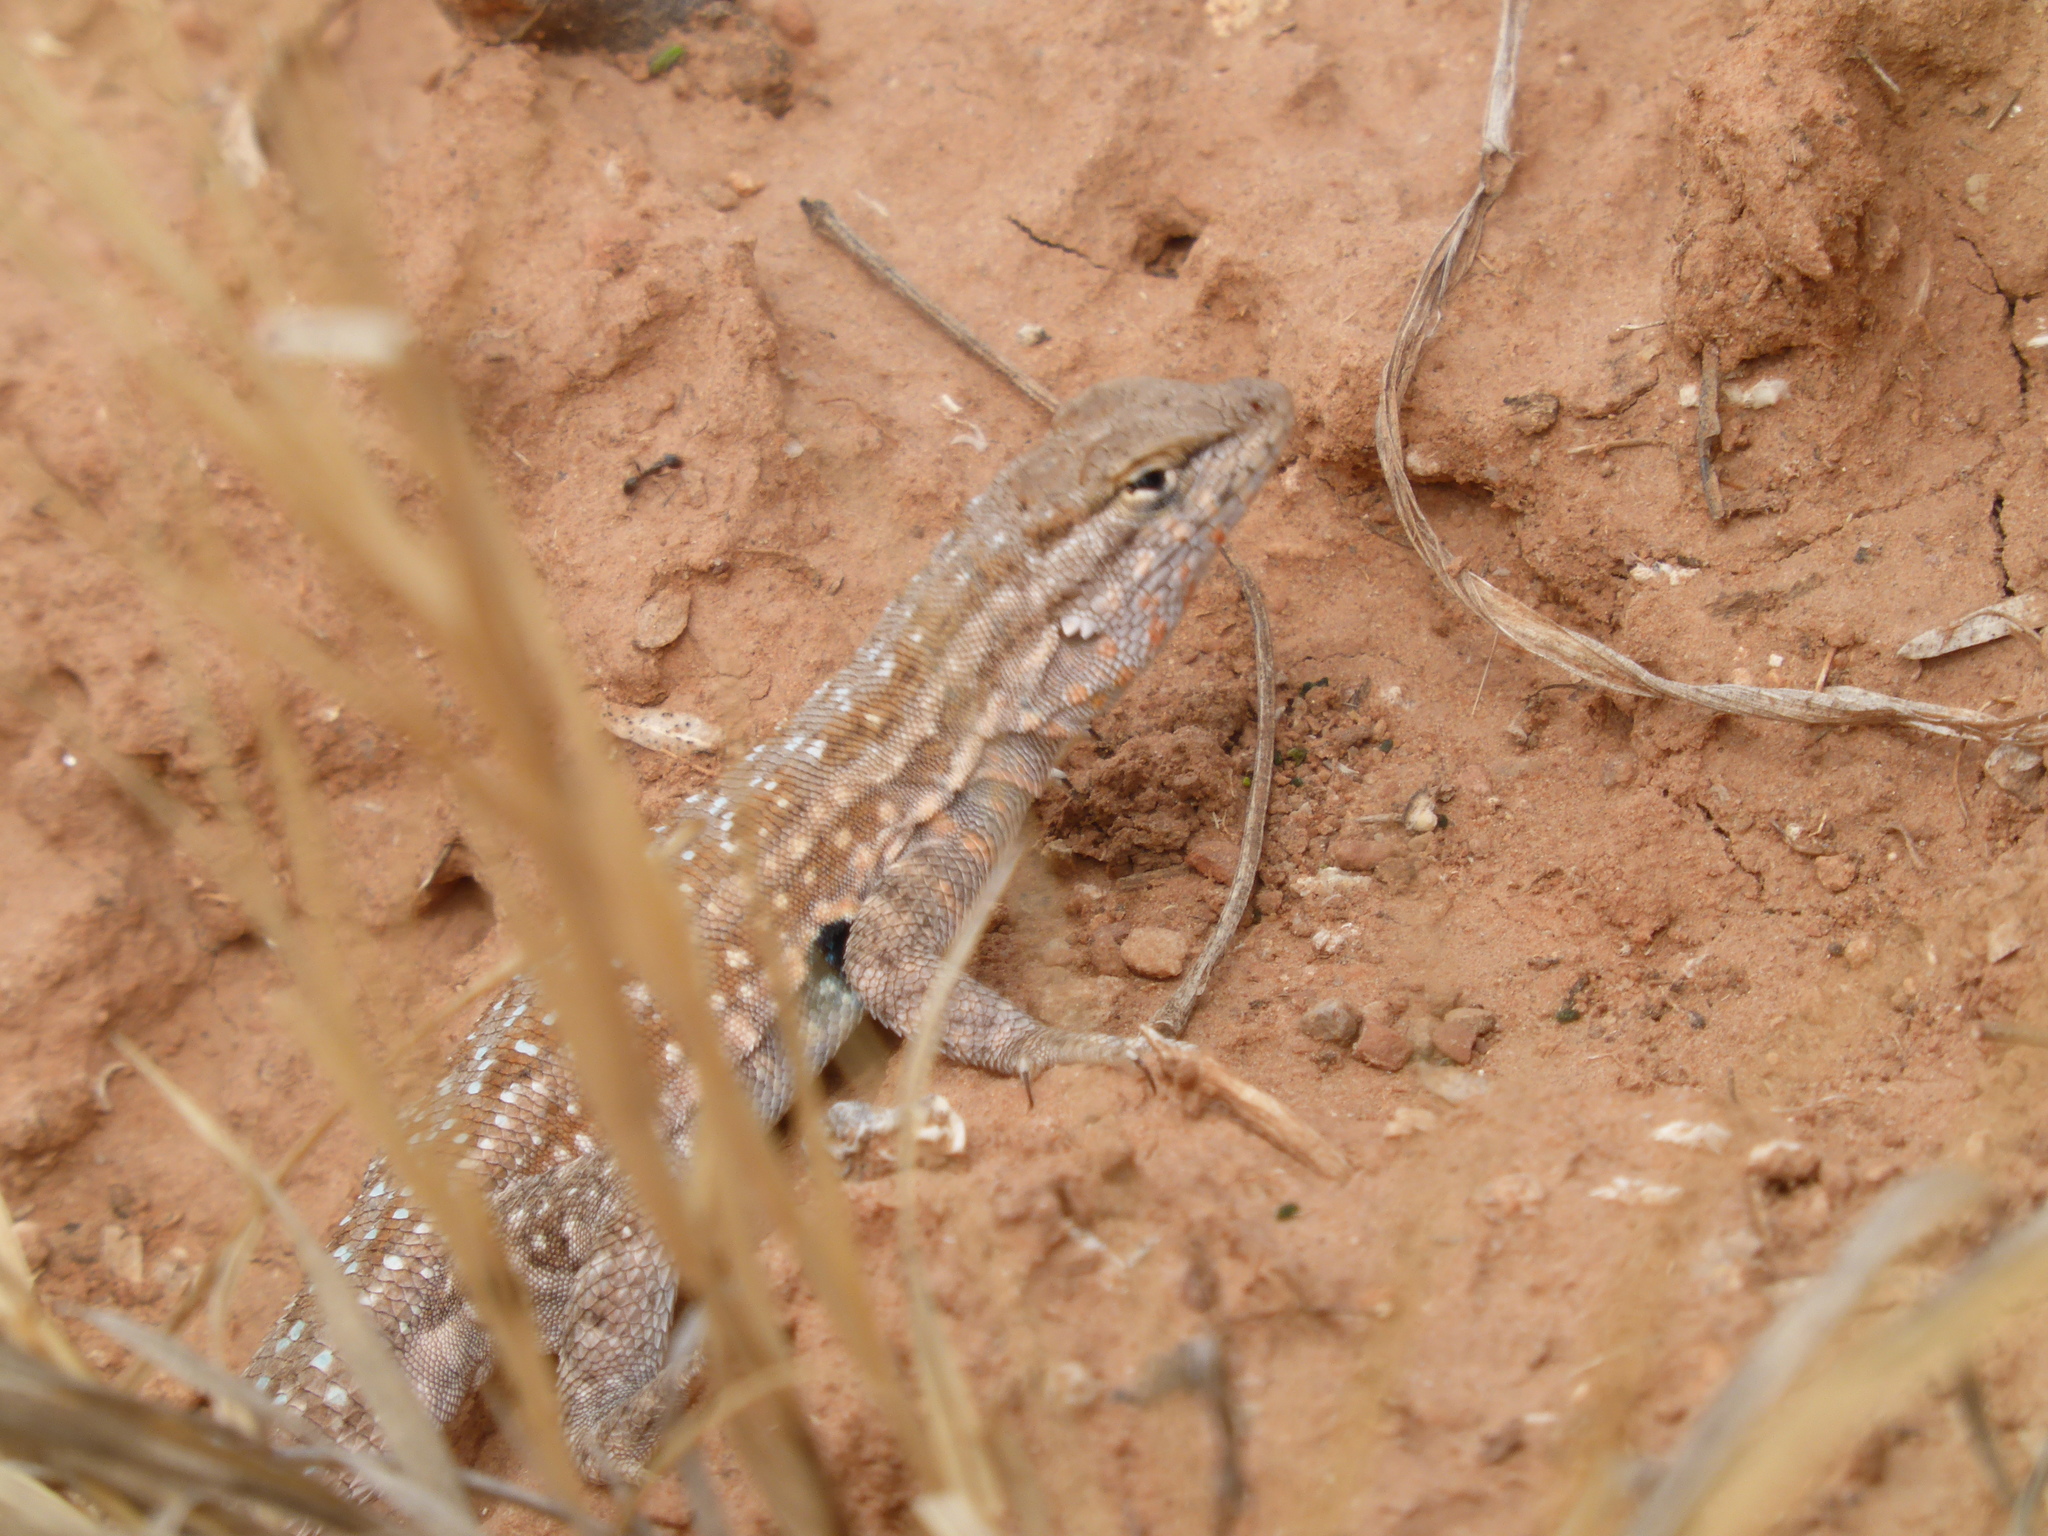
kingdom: Animalia
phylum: Chordata
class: Squamata
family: Phrynosomatidae
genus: Uta
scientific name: Uta stansburiana
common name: Side-blotched lizard
